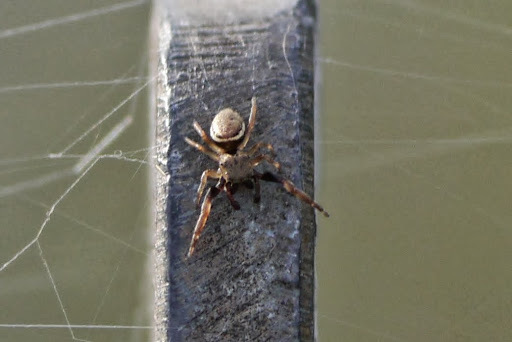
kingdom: Animalia
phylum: Arthropoda
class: Arachnida
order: Araneae
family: Salticidae
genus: Zygoballus
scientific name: Zygoballus rufipes
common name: Jumping spiders
